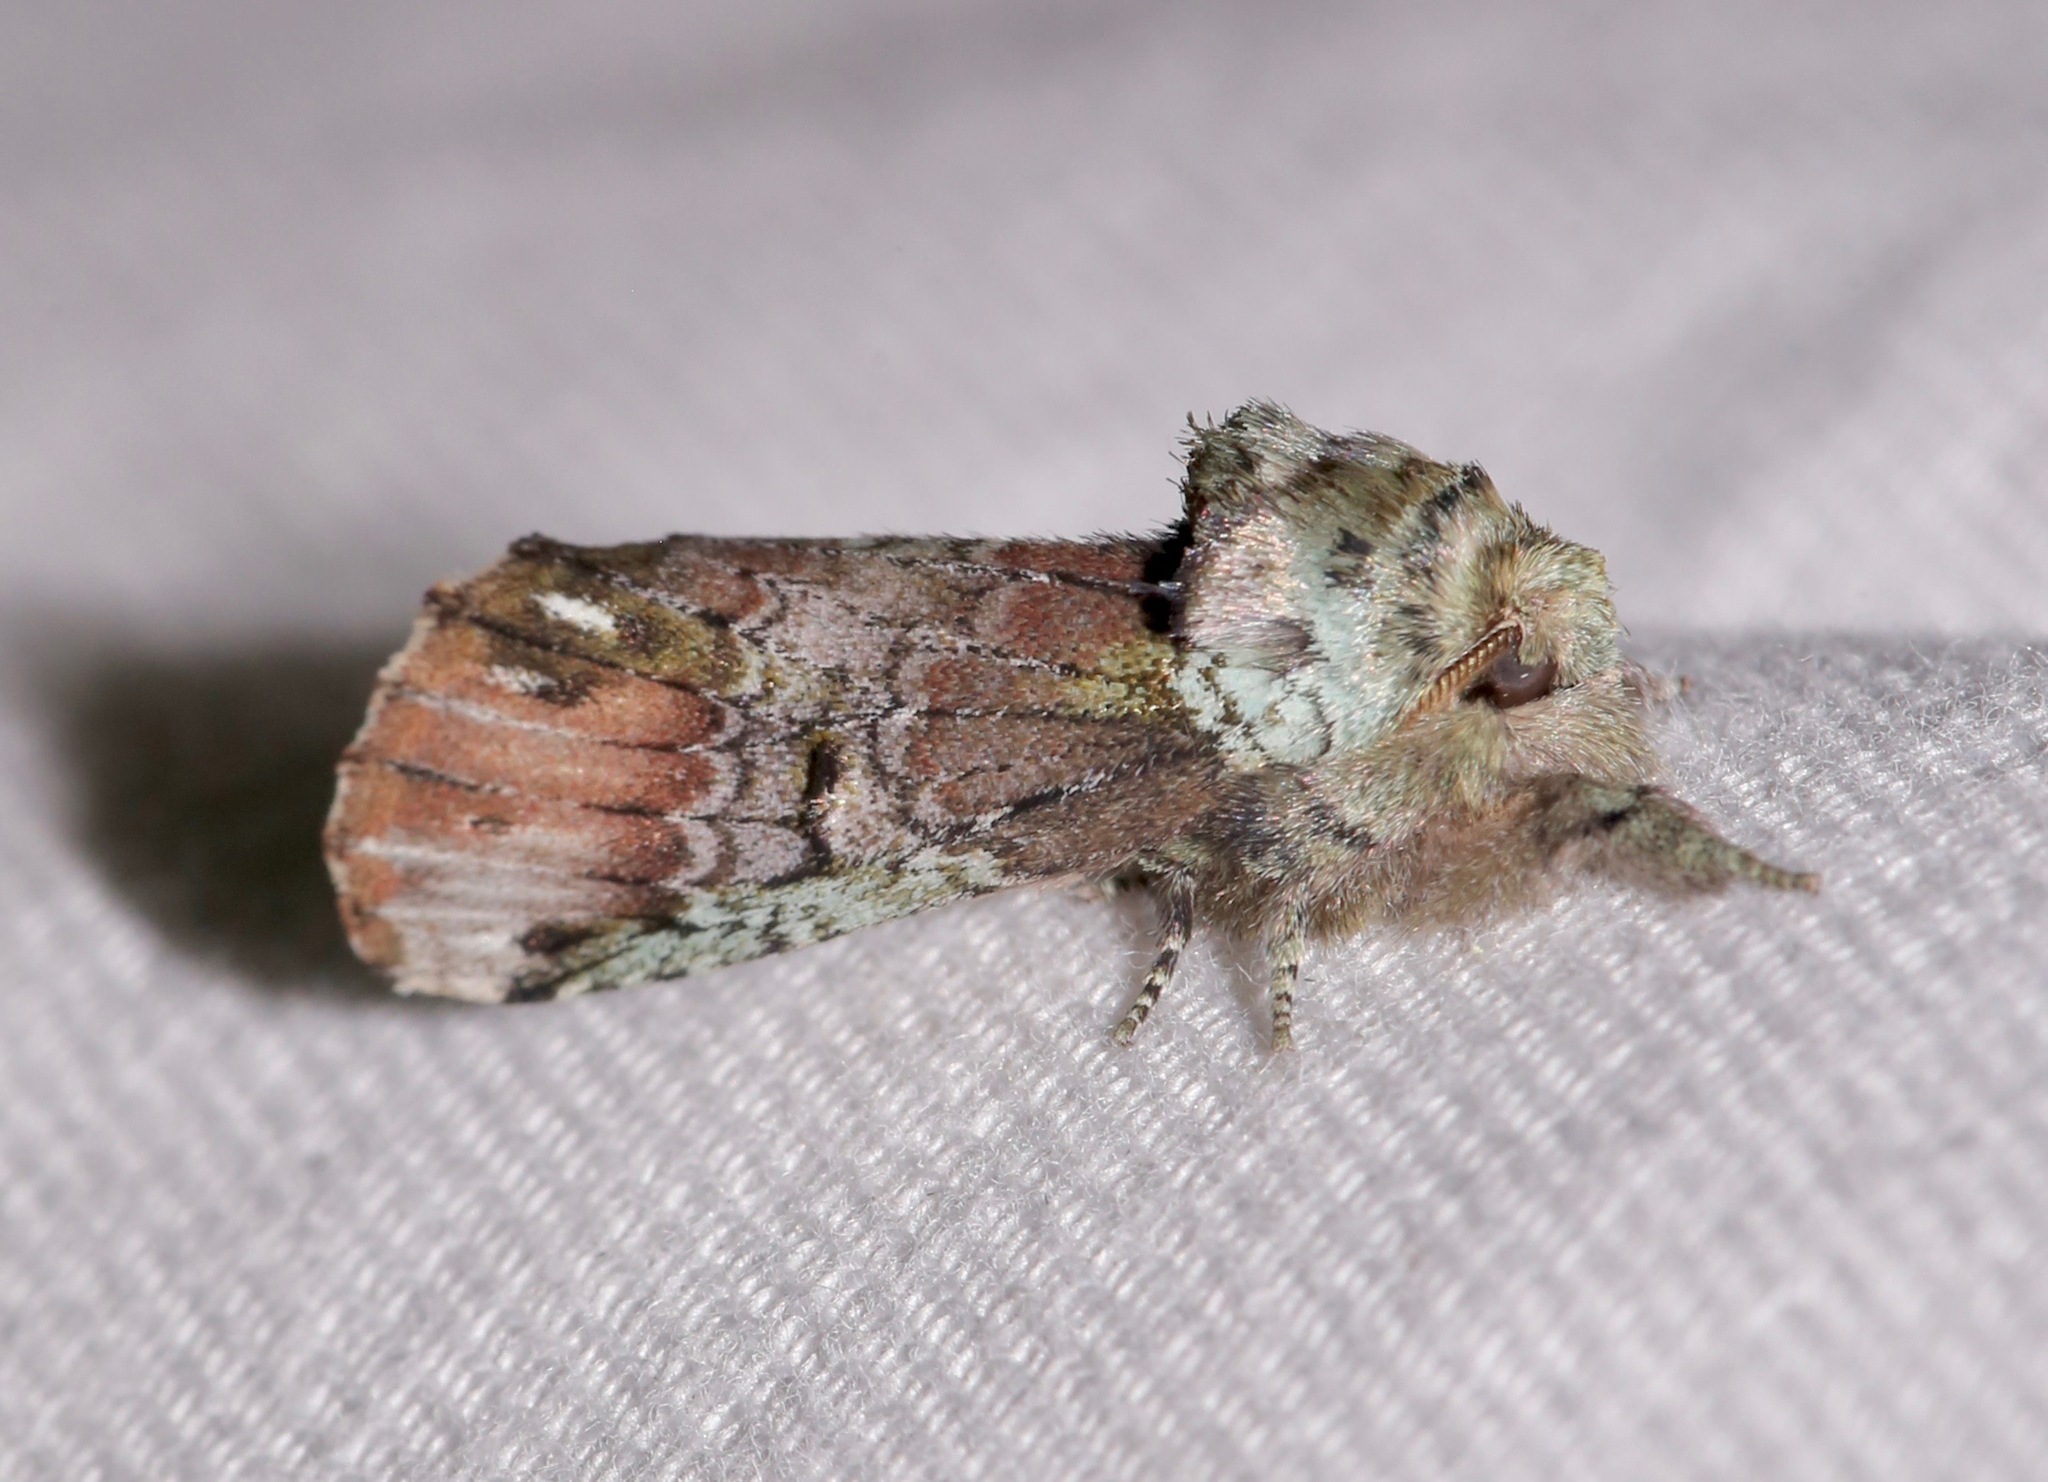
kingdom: Animalia
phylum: Arthropoda
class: Insecta
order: Lepidoptera
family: Notodontidae
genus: Schizura
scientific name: Schizura
